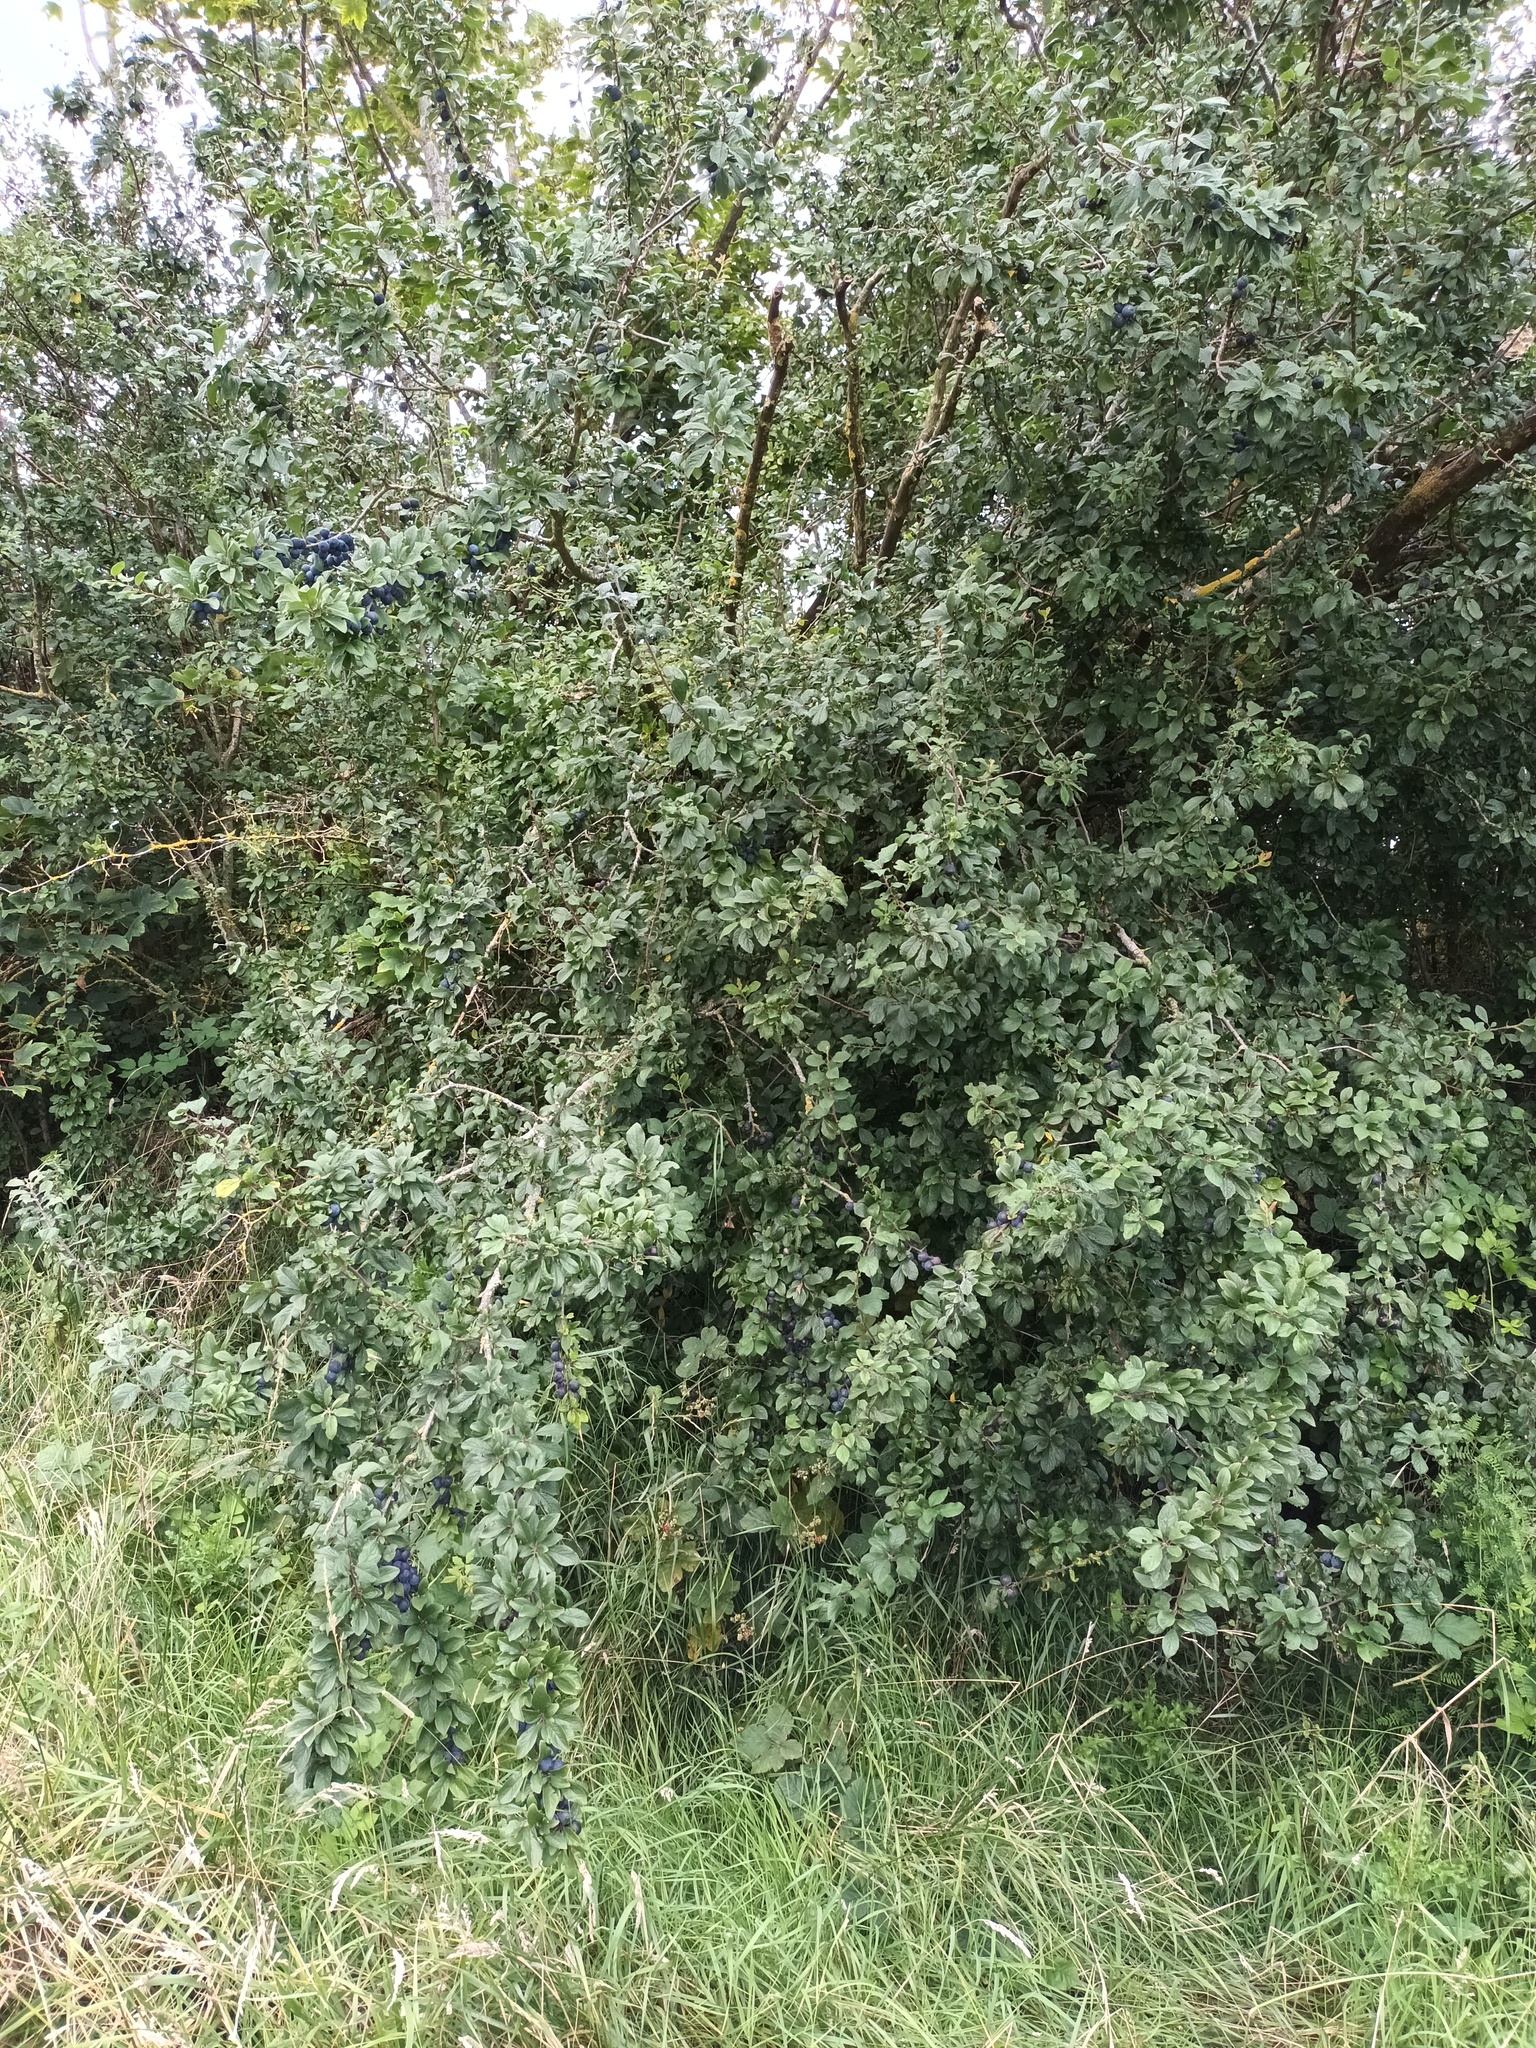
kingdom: Plantae
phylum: Tracheophyta
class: Magnoliopsida
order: Rosales
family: Rosaceae
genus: Prunus
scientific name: Prunus spinosa
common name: Blackthorn
